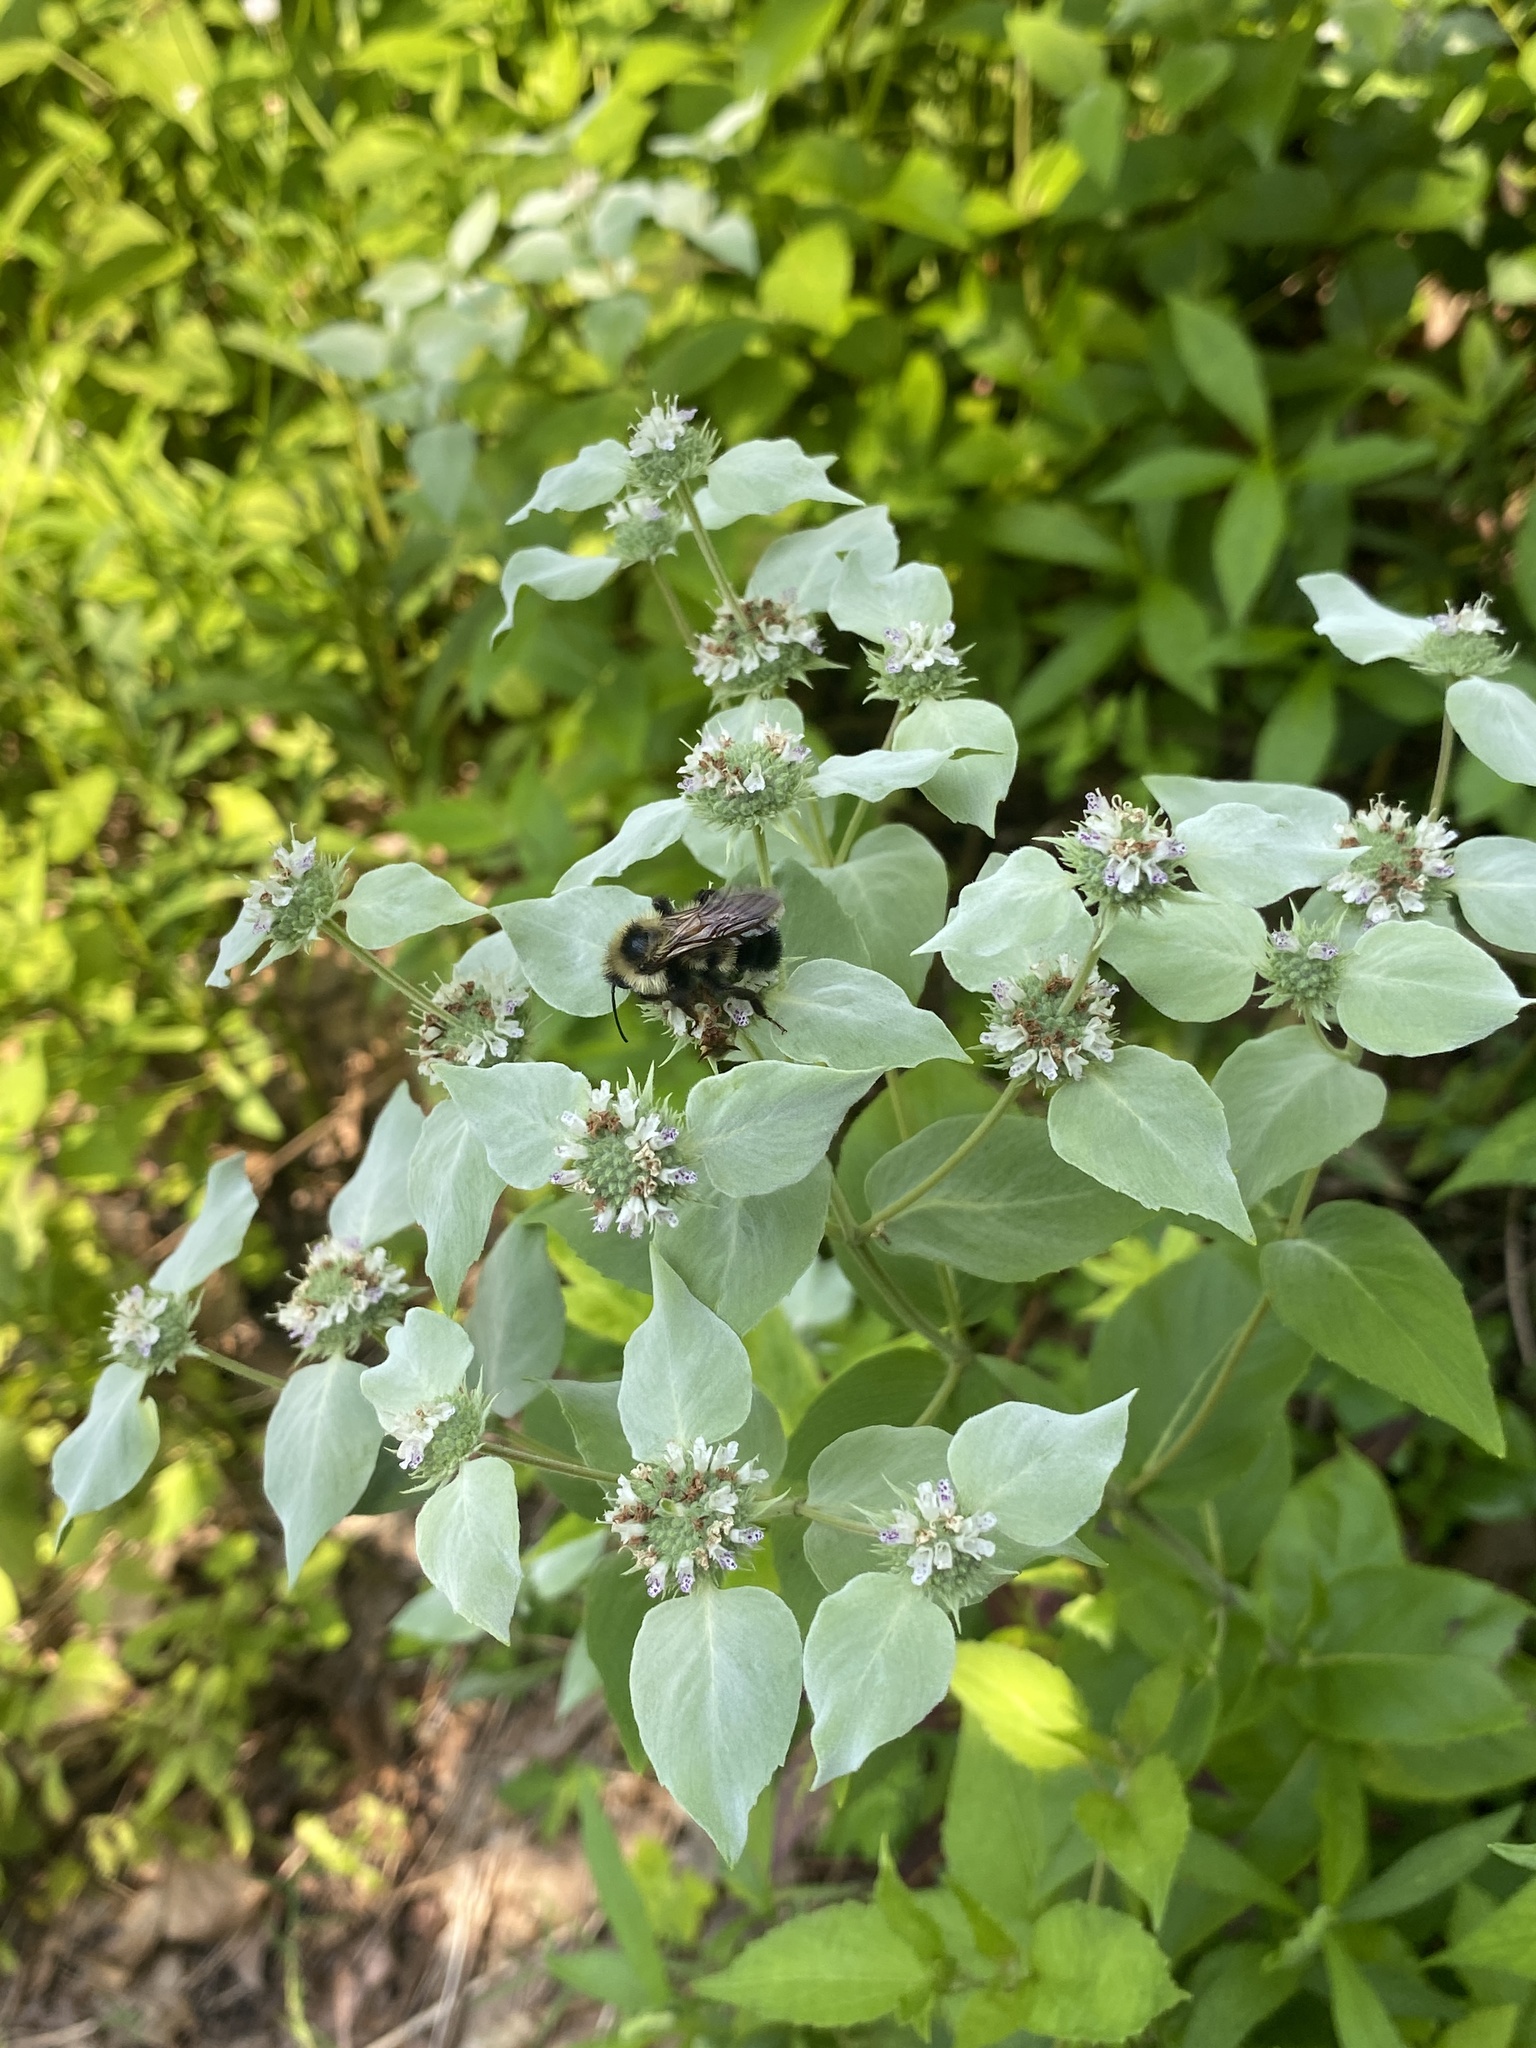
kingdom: Plantae
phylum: Tracheophyta
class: Magnoliopsida
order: Lamiales
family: Lamiaceae
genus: Pycnanthemum
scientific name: Pycnanthemum muticum
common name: Blunt mountain-mint
